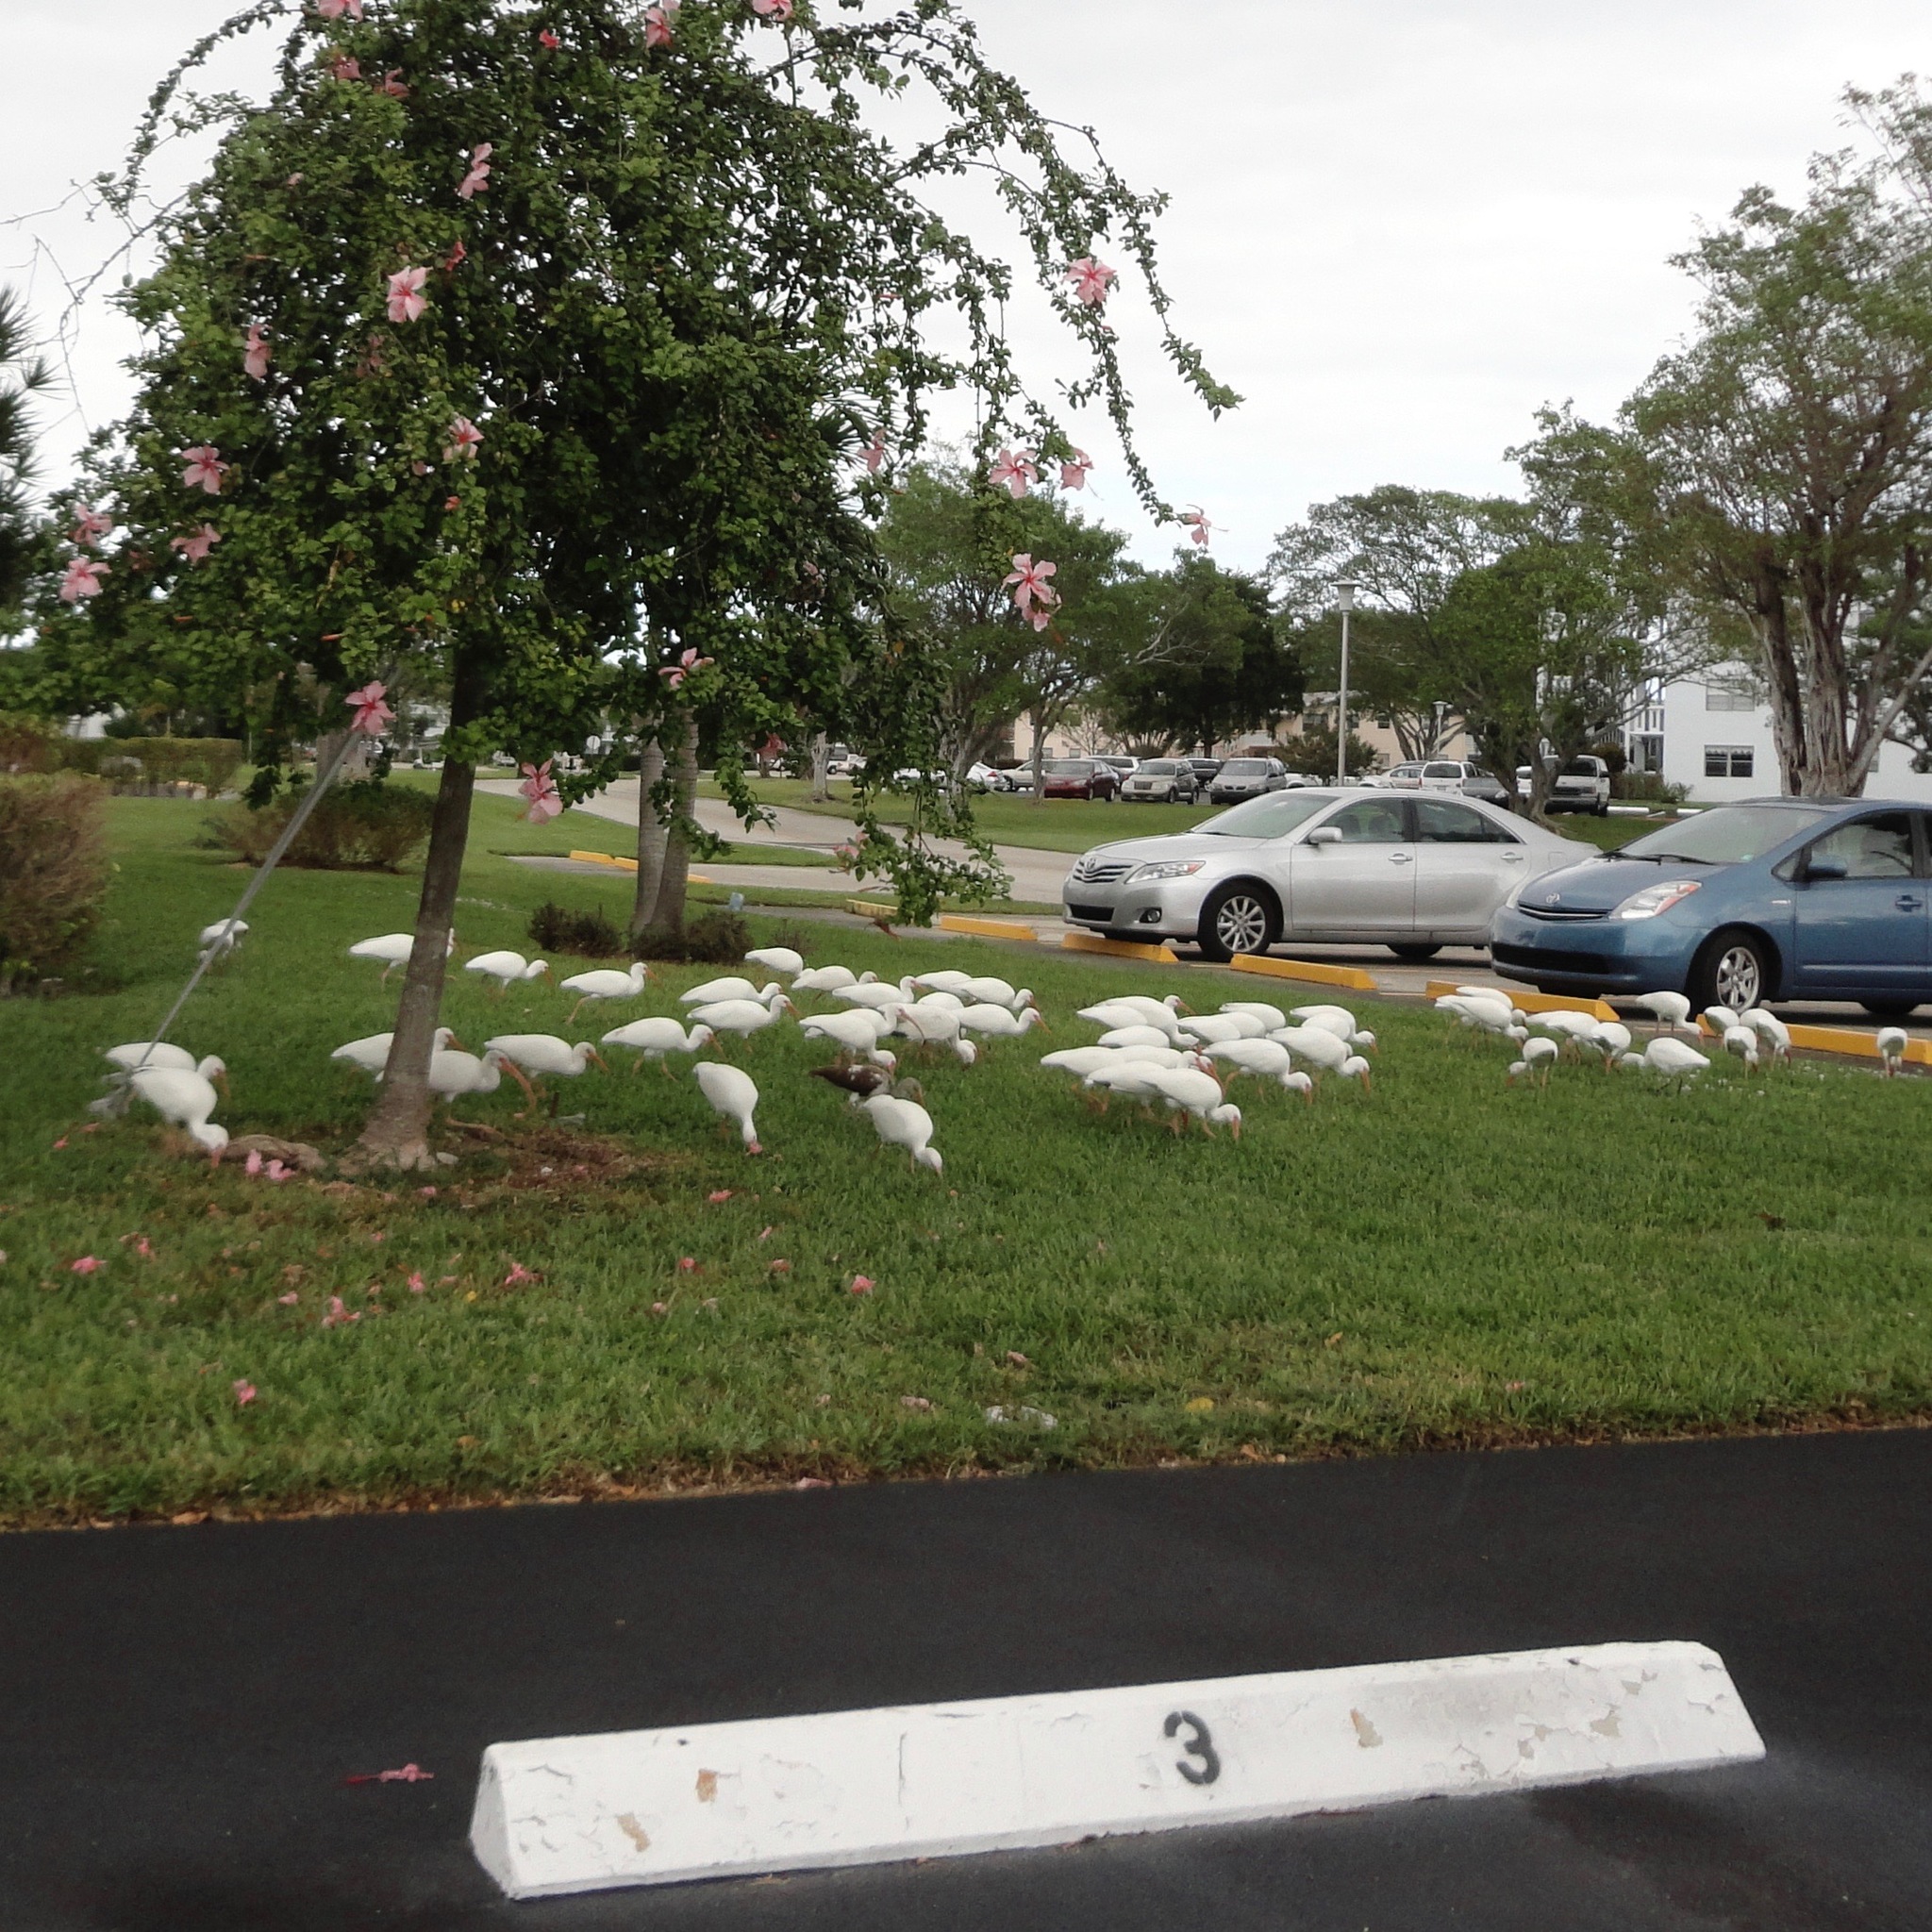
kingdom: Animalia
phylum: Chordata
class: Aves
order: Pelecaniformes
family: Threskiornithidae
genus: Eudocimus
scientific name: Eudocimus albus
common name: White ibis
